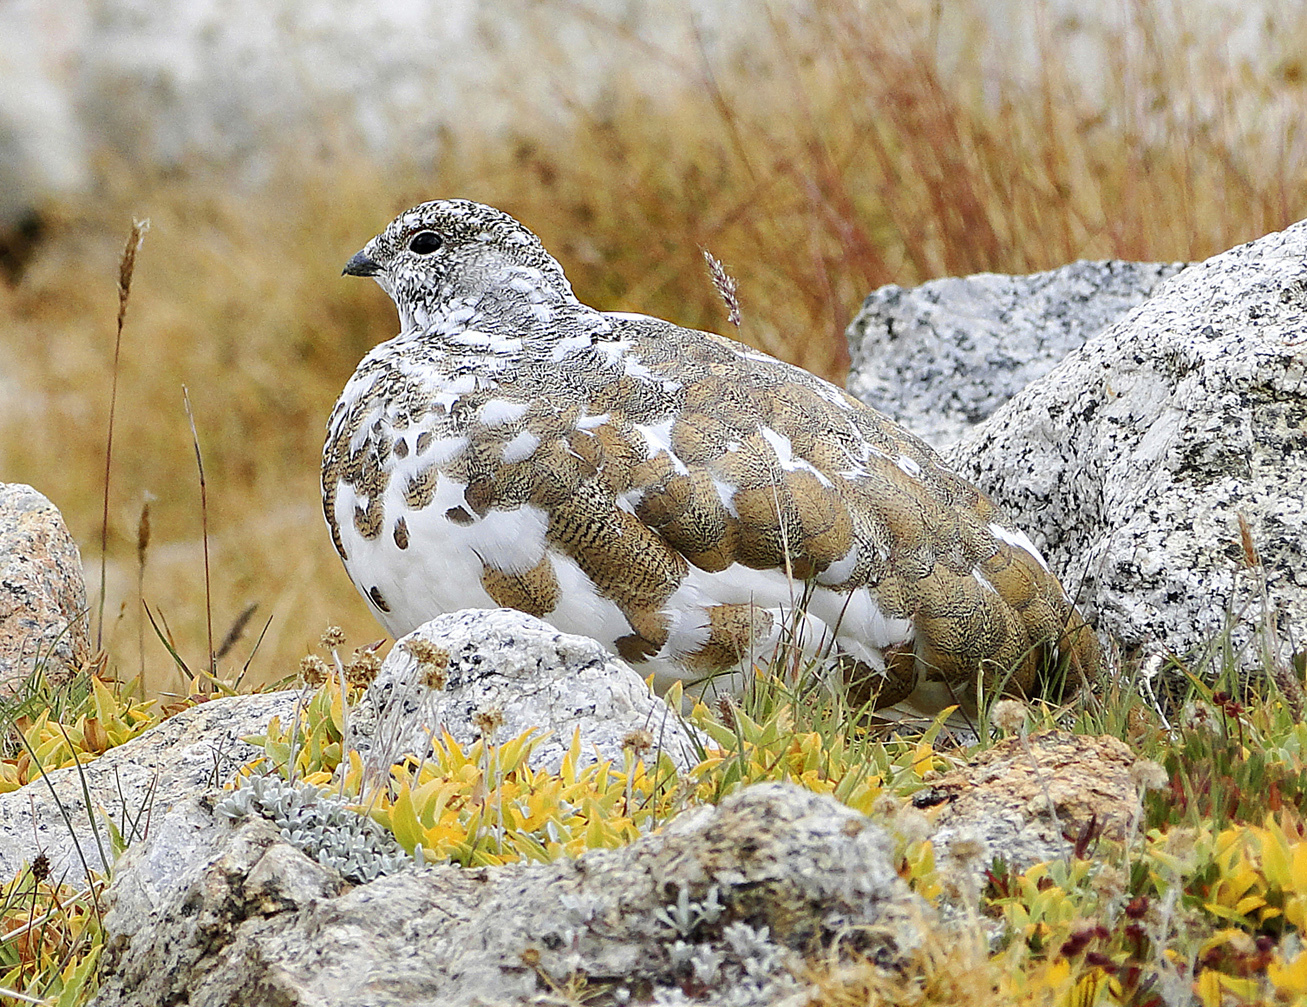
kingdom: Animalia
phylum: Chordata
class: Aves
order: Galliformes
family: Phasianidae
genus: Lagopus
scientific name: Lagopus leucura
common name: White-tailed ptarmigan
